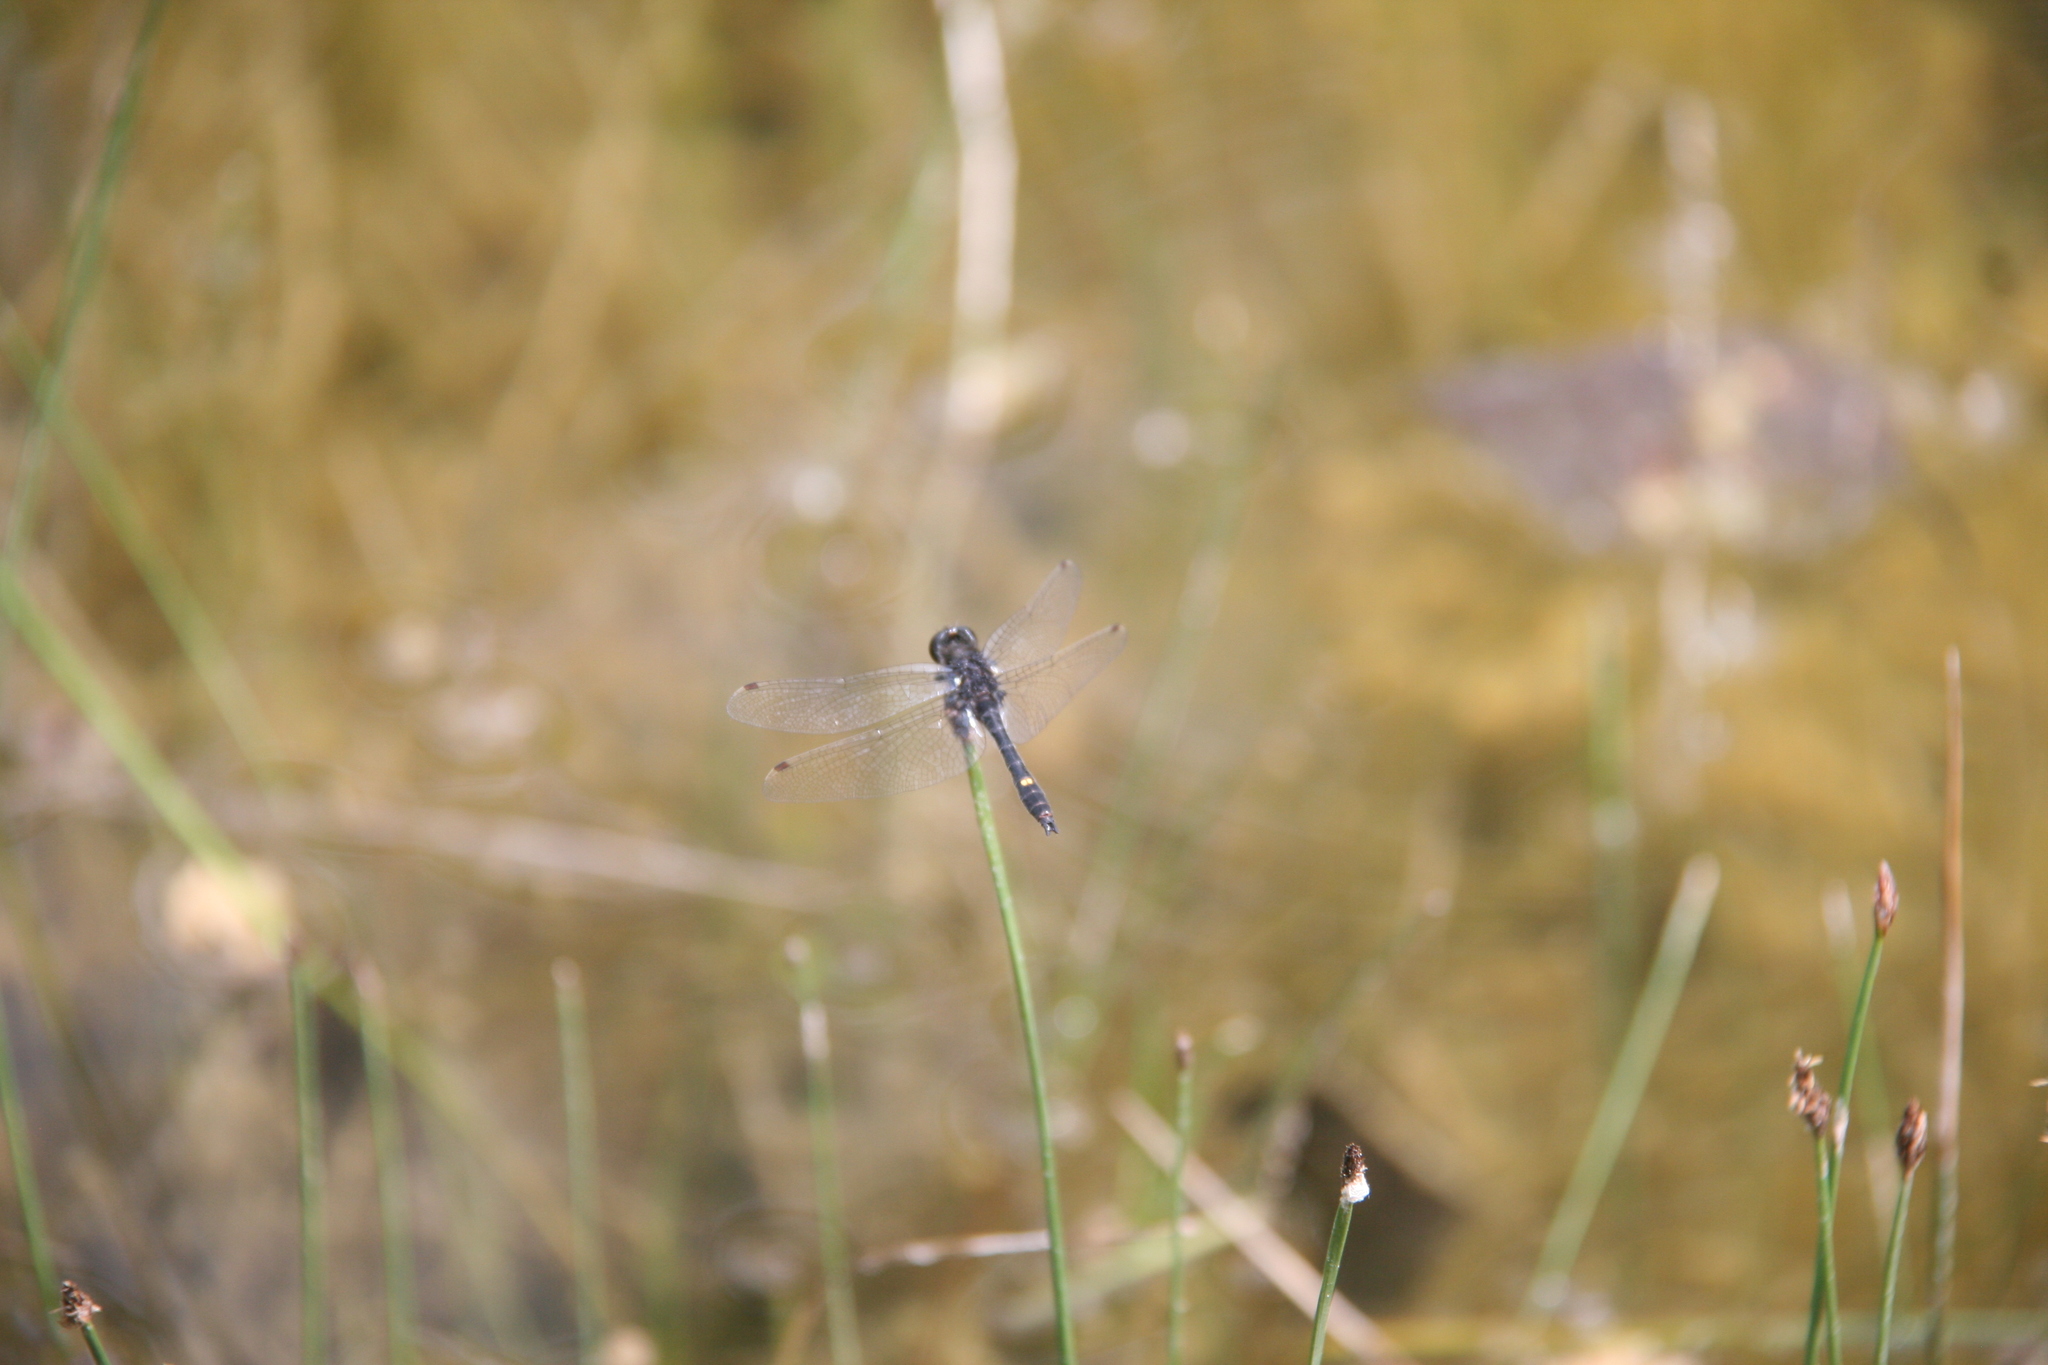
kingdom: Animalia
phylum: Arthropoda
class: Insecta
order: Odonata
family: Libellulidae
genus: Leucorrhinia
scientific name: Leucorrhinia intacta
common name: Dot-tailed whiteface
